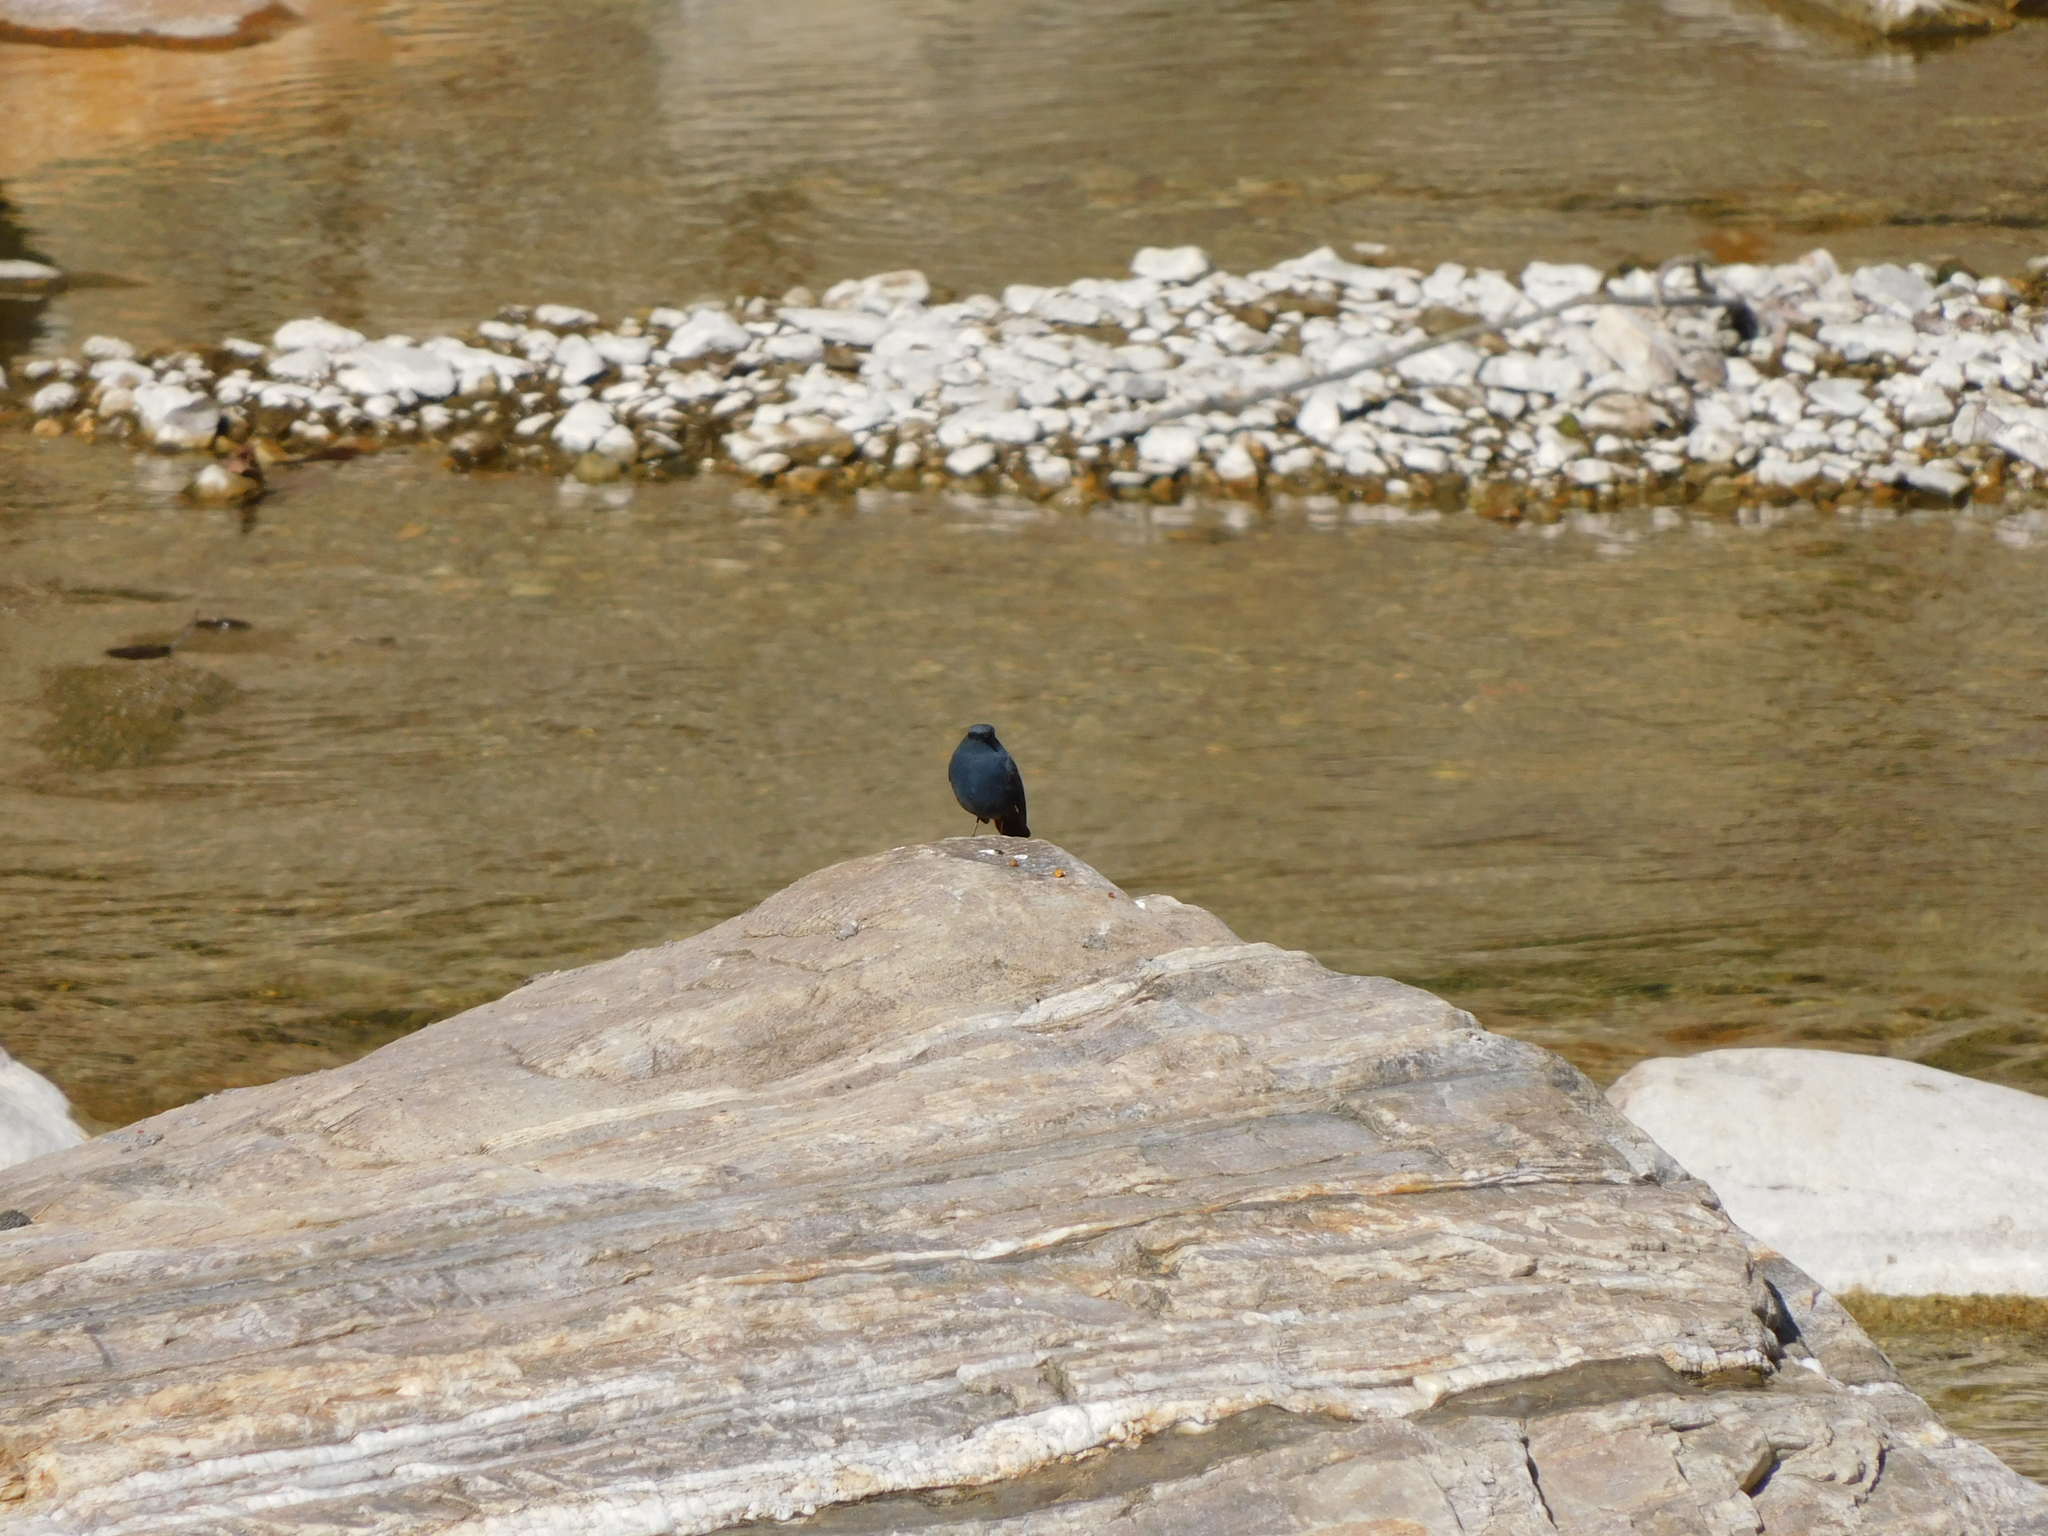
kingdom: Animalia
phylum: Chordata
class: Aves
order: Passeriformes
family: Muscicapidae
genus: Phoenicurus
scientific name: Phoenicurus fuliginosus
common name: Plumbeous water redstart
